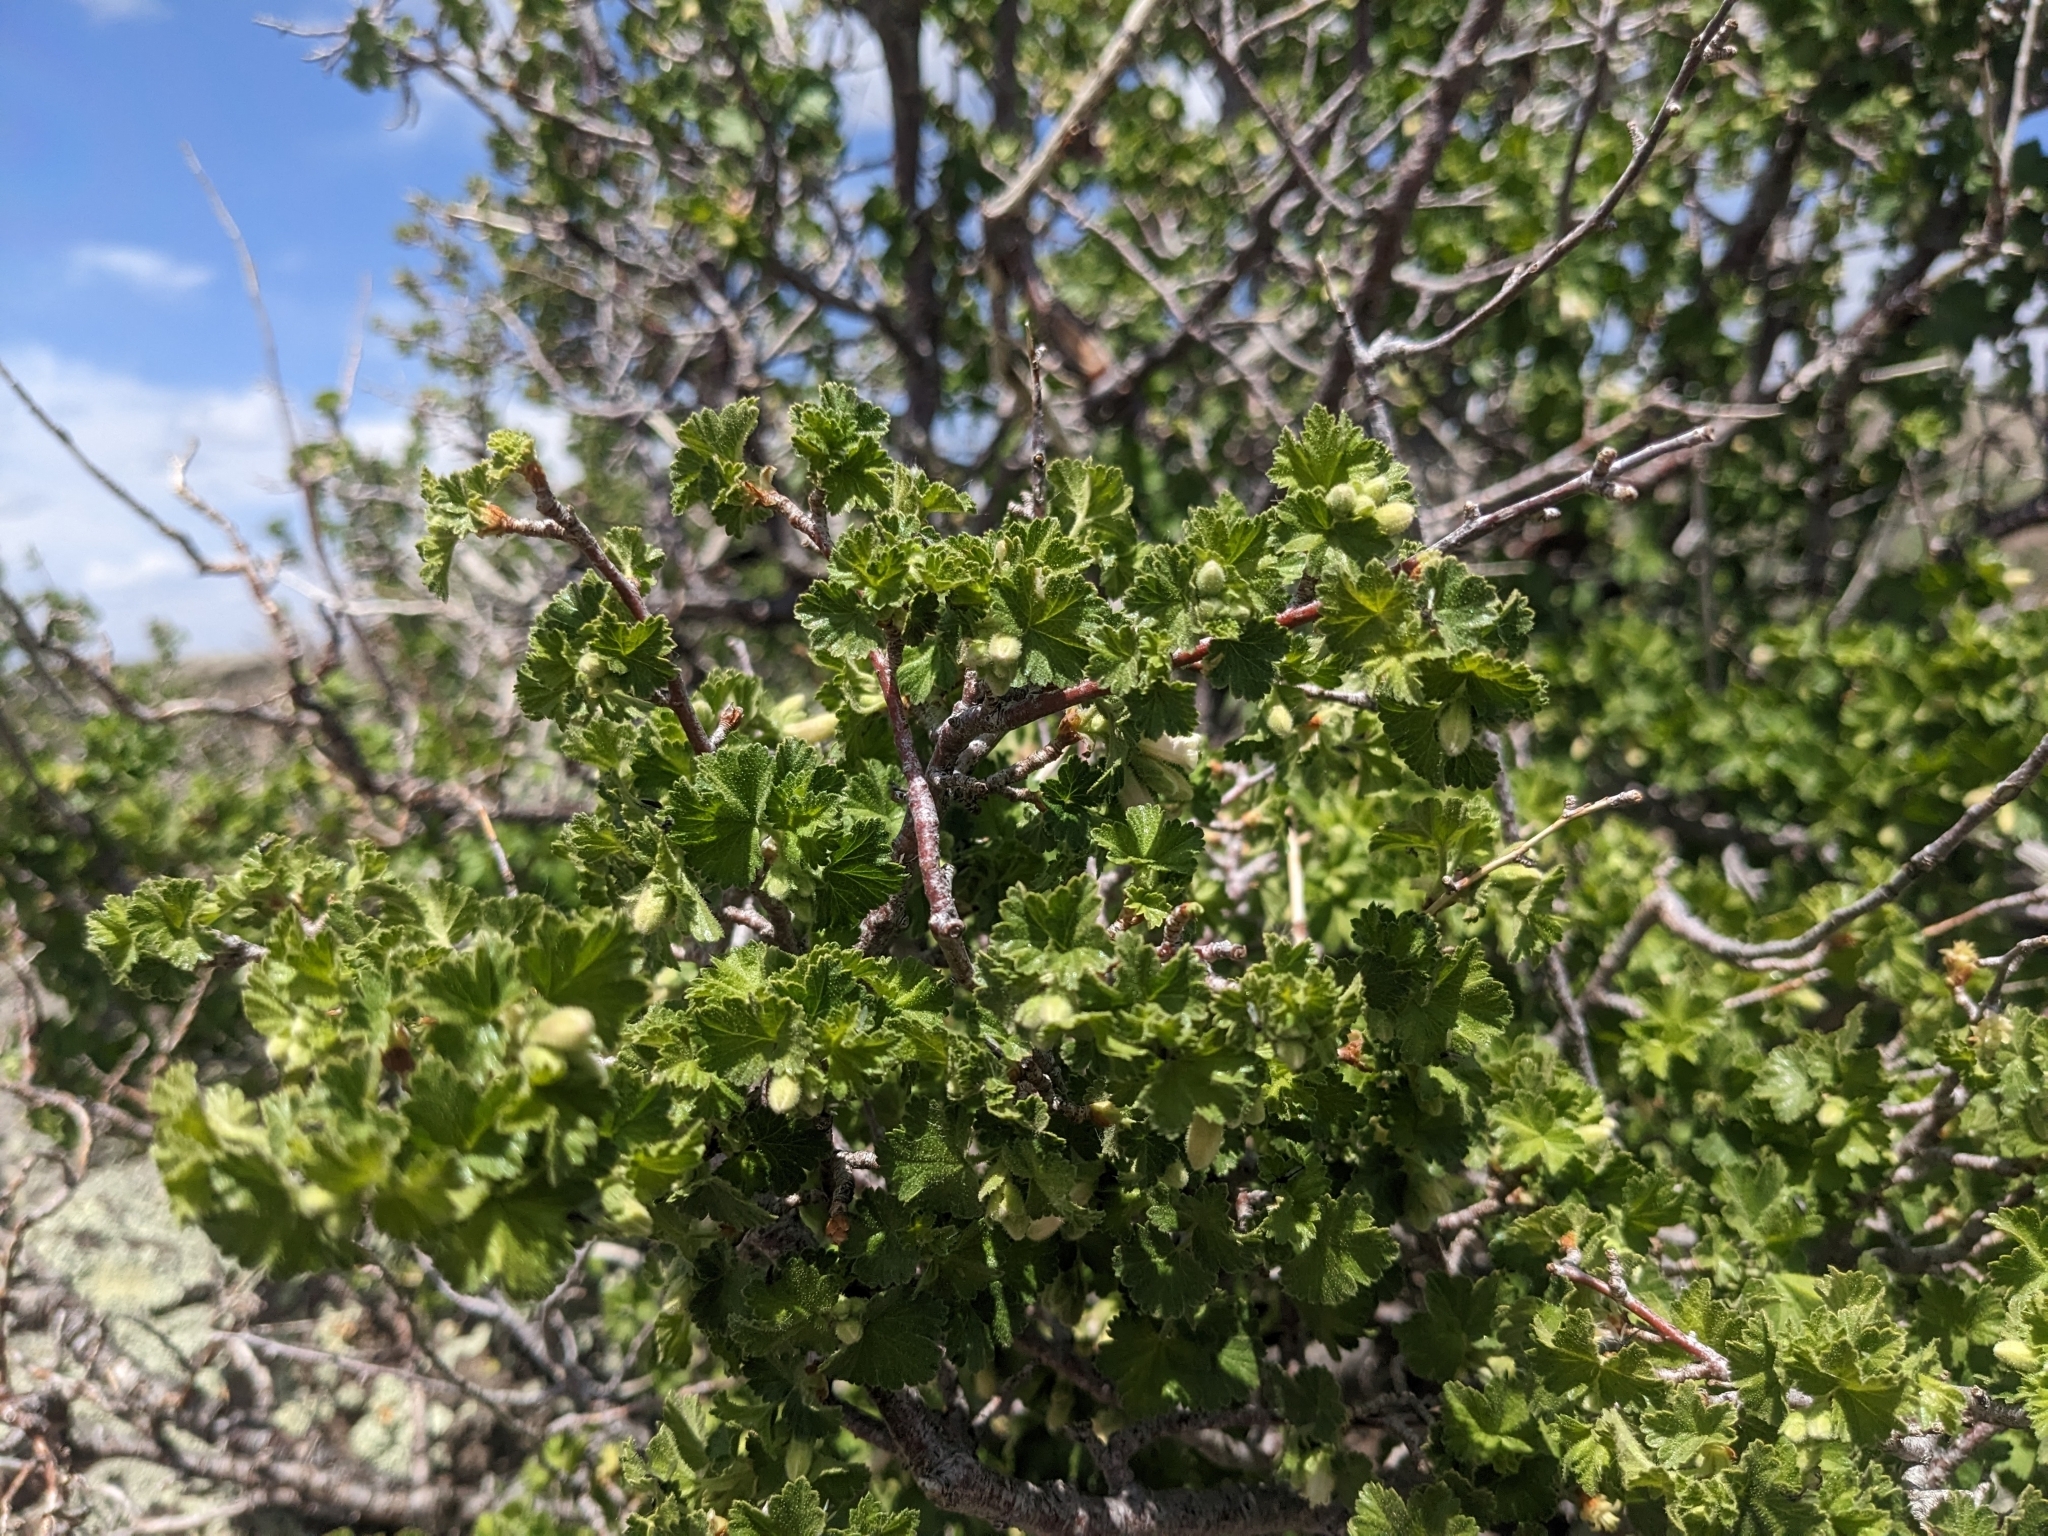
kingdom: Plantae
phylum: Tracheophyta
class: Magnoliopsida
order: Saxifragales
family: Grossulariaceae
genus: Ribes
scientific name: Ribes cereum
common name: Wax currant
